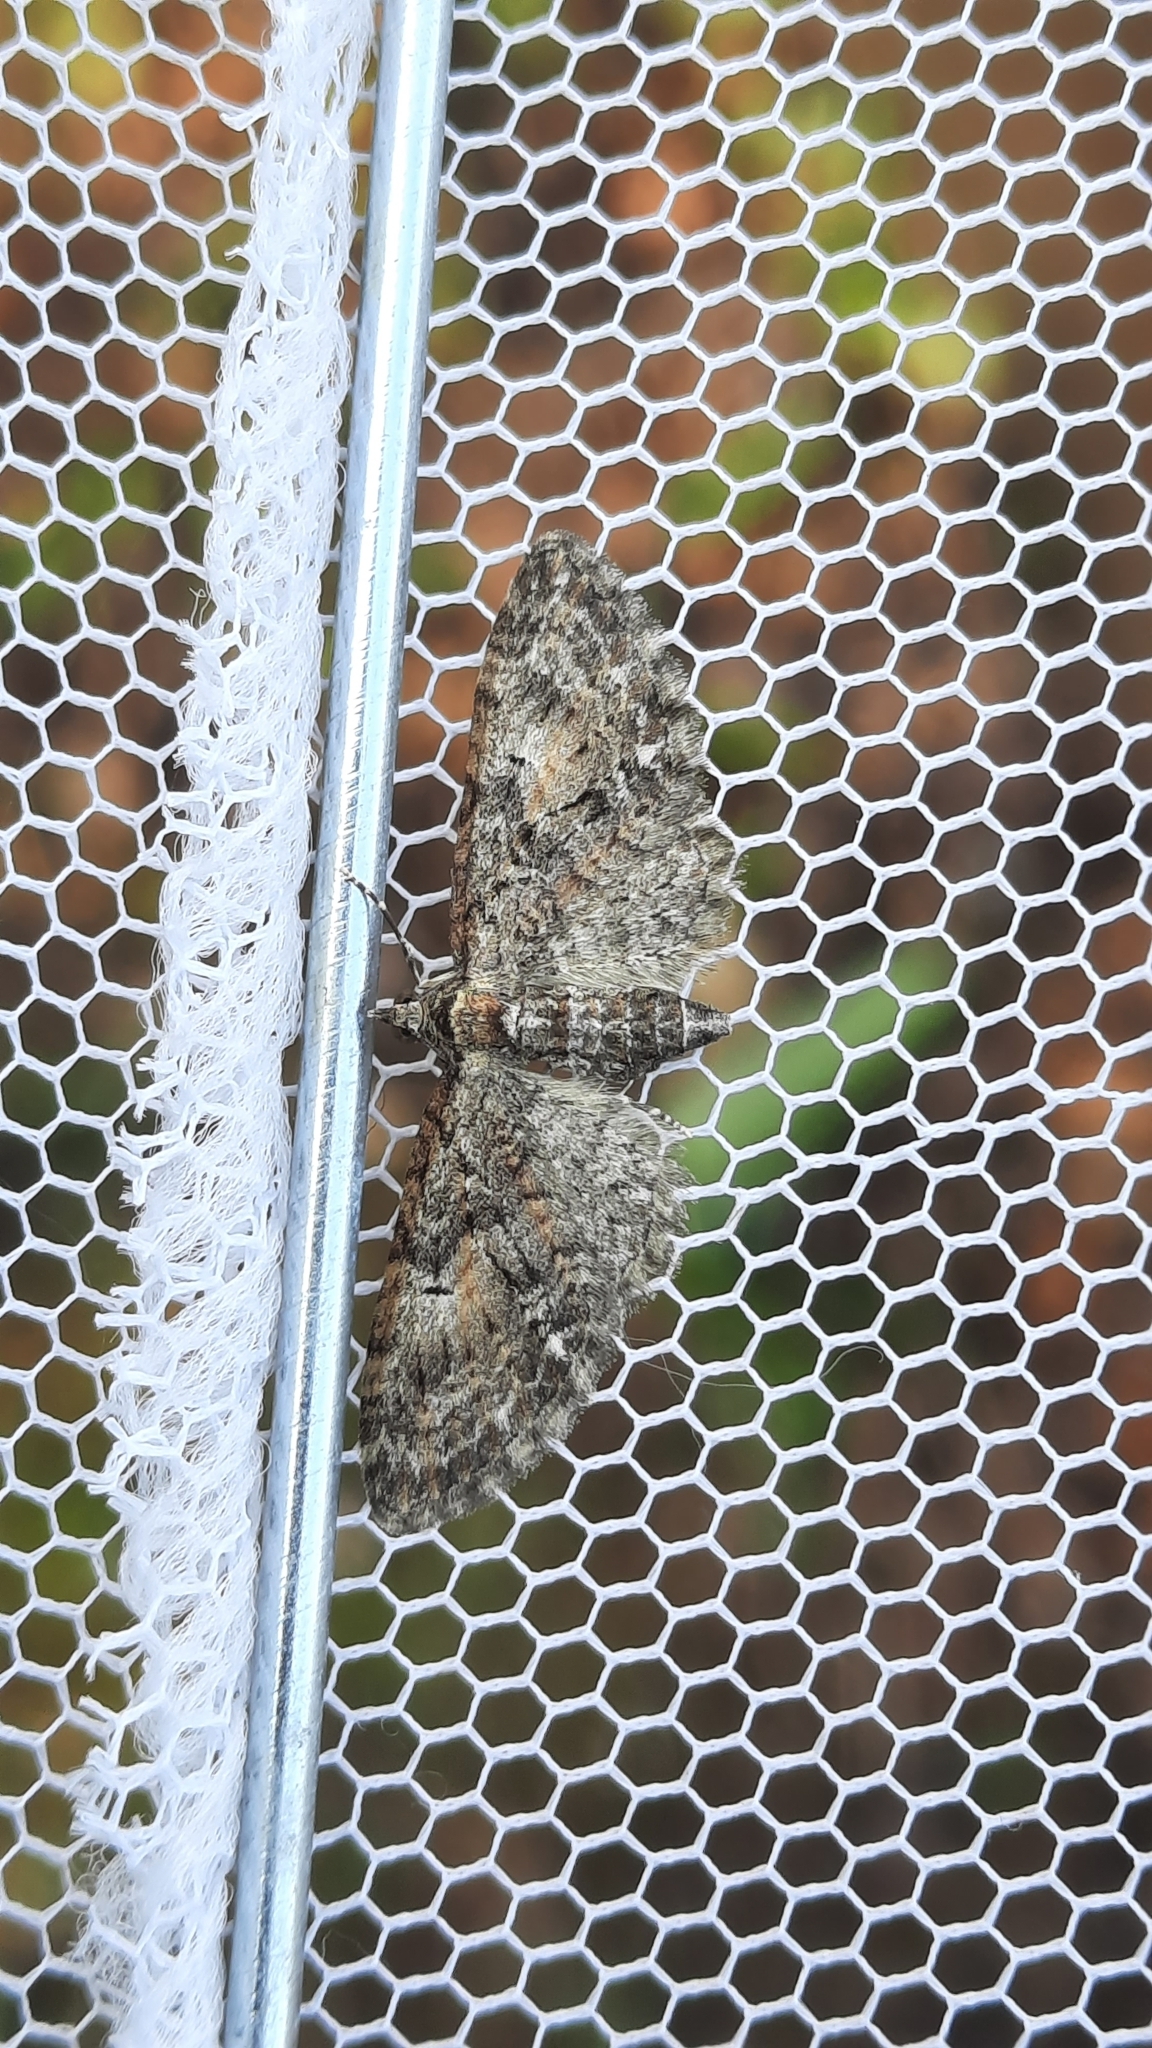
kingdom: Animalia
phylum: Arthropoda
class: Insecta
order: Lepidoptera
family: Geometridae
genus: Eupithecia
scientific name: Eupithecia abbreviata
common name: Brindled pug
